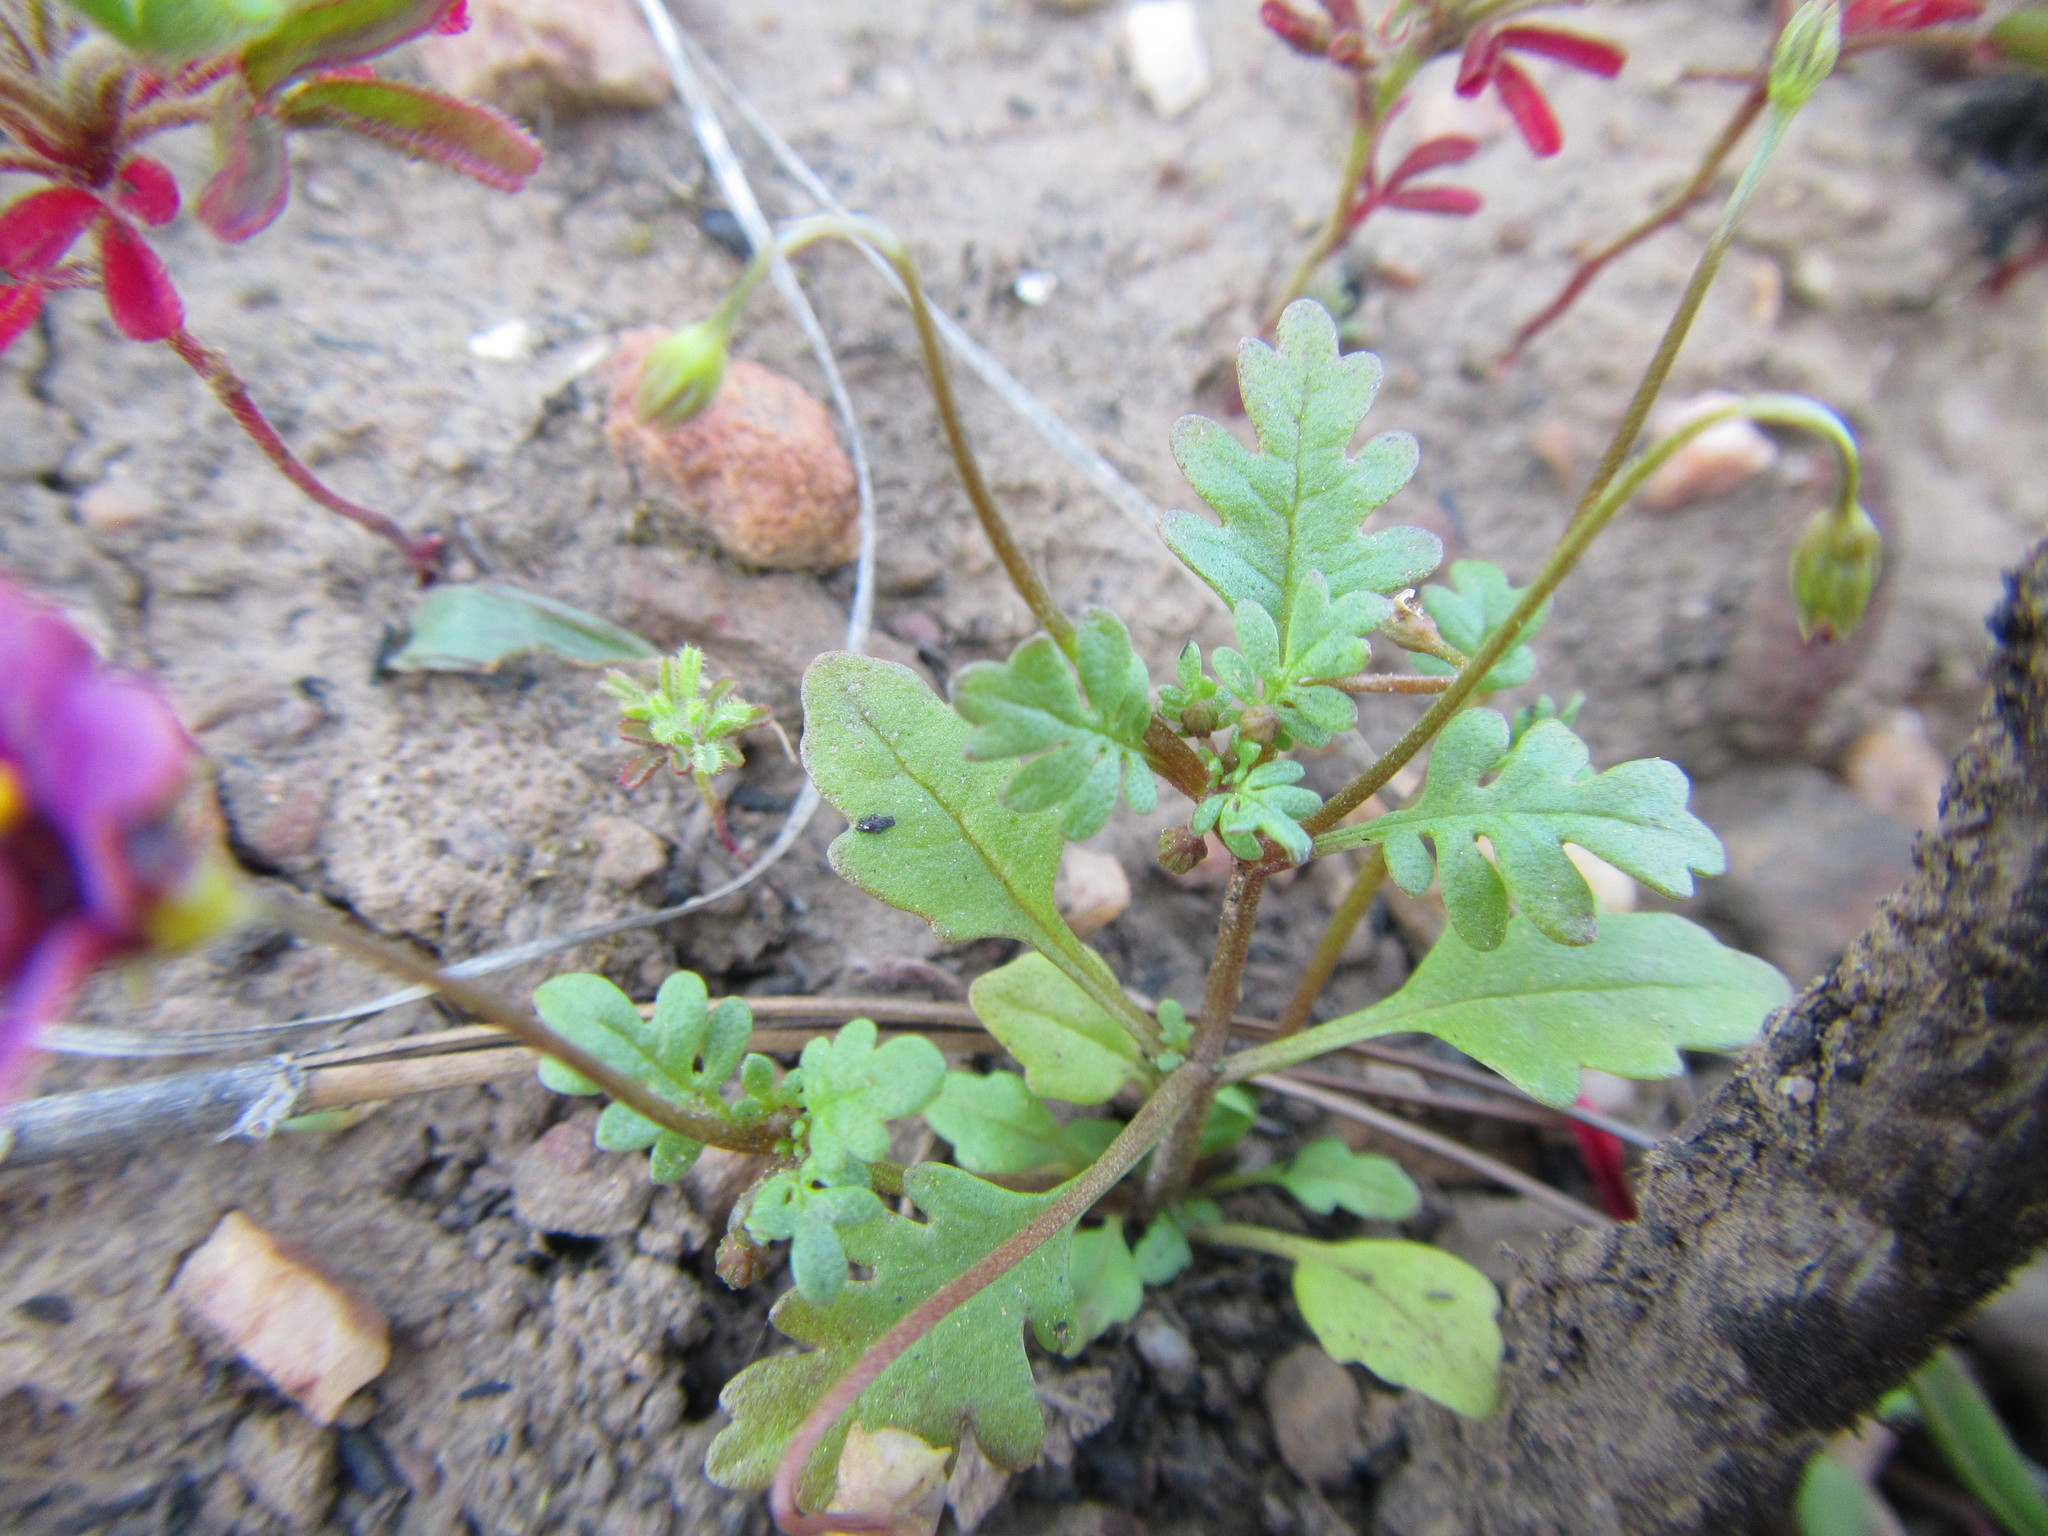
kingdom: Plantae
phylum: Tracheophyta
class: Magnoliopsida
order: Lamiales
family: Scrophulariaceae
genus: Diascia
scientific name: Diascia elongata
